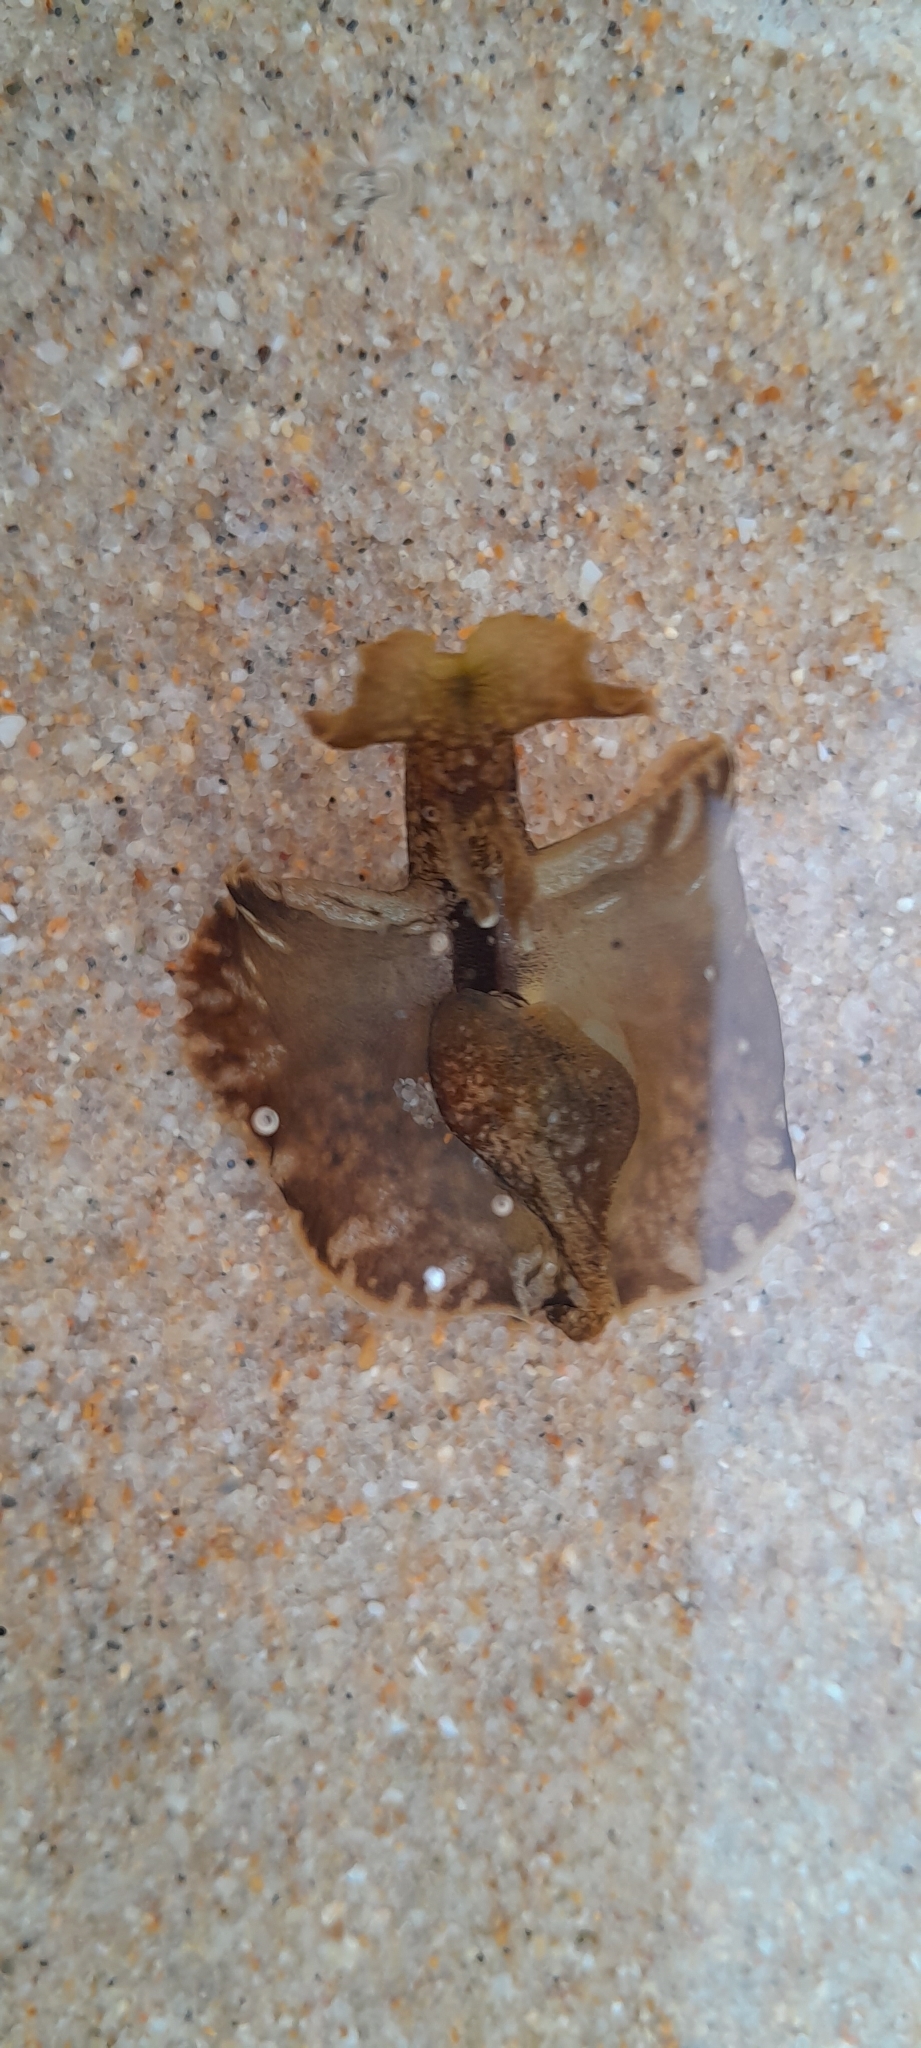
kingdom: Animalia
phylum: Mollusca
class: Gastropoda
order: Aplysiida
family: Aplysiidae
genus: Aplysia
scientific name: Aplysia fasciata
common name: Banded sea hare
